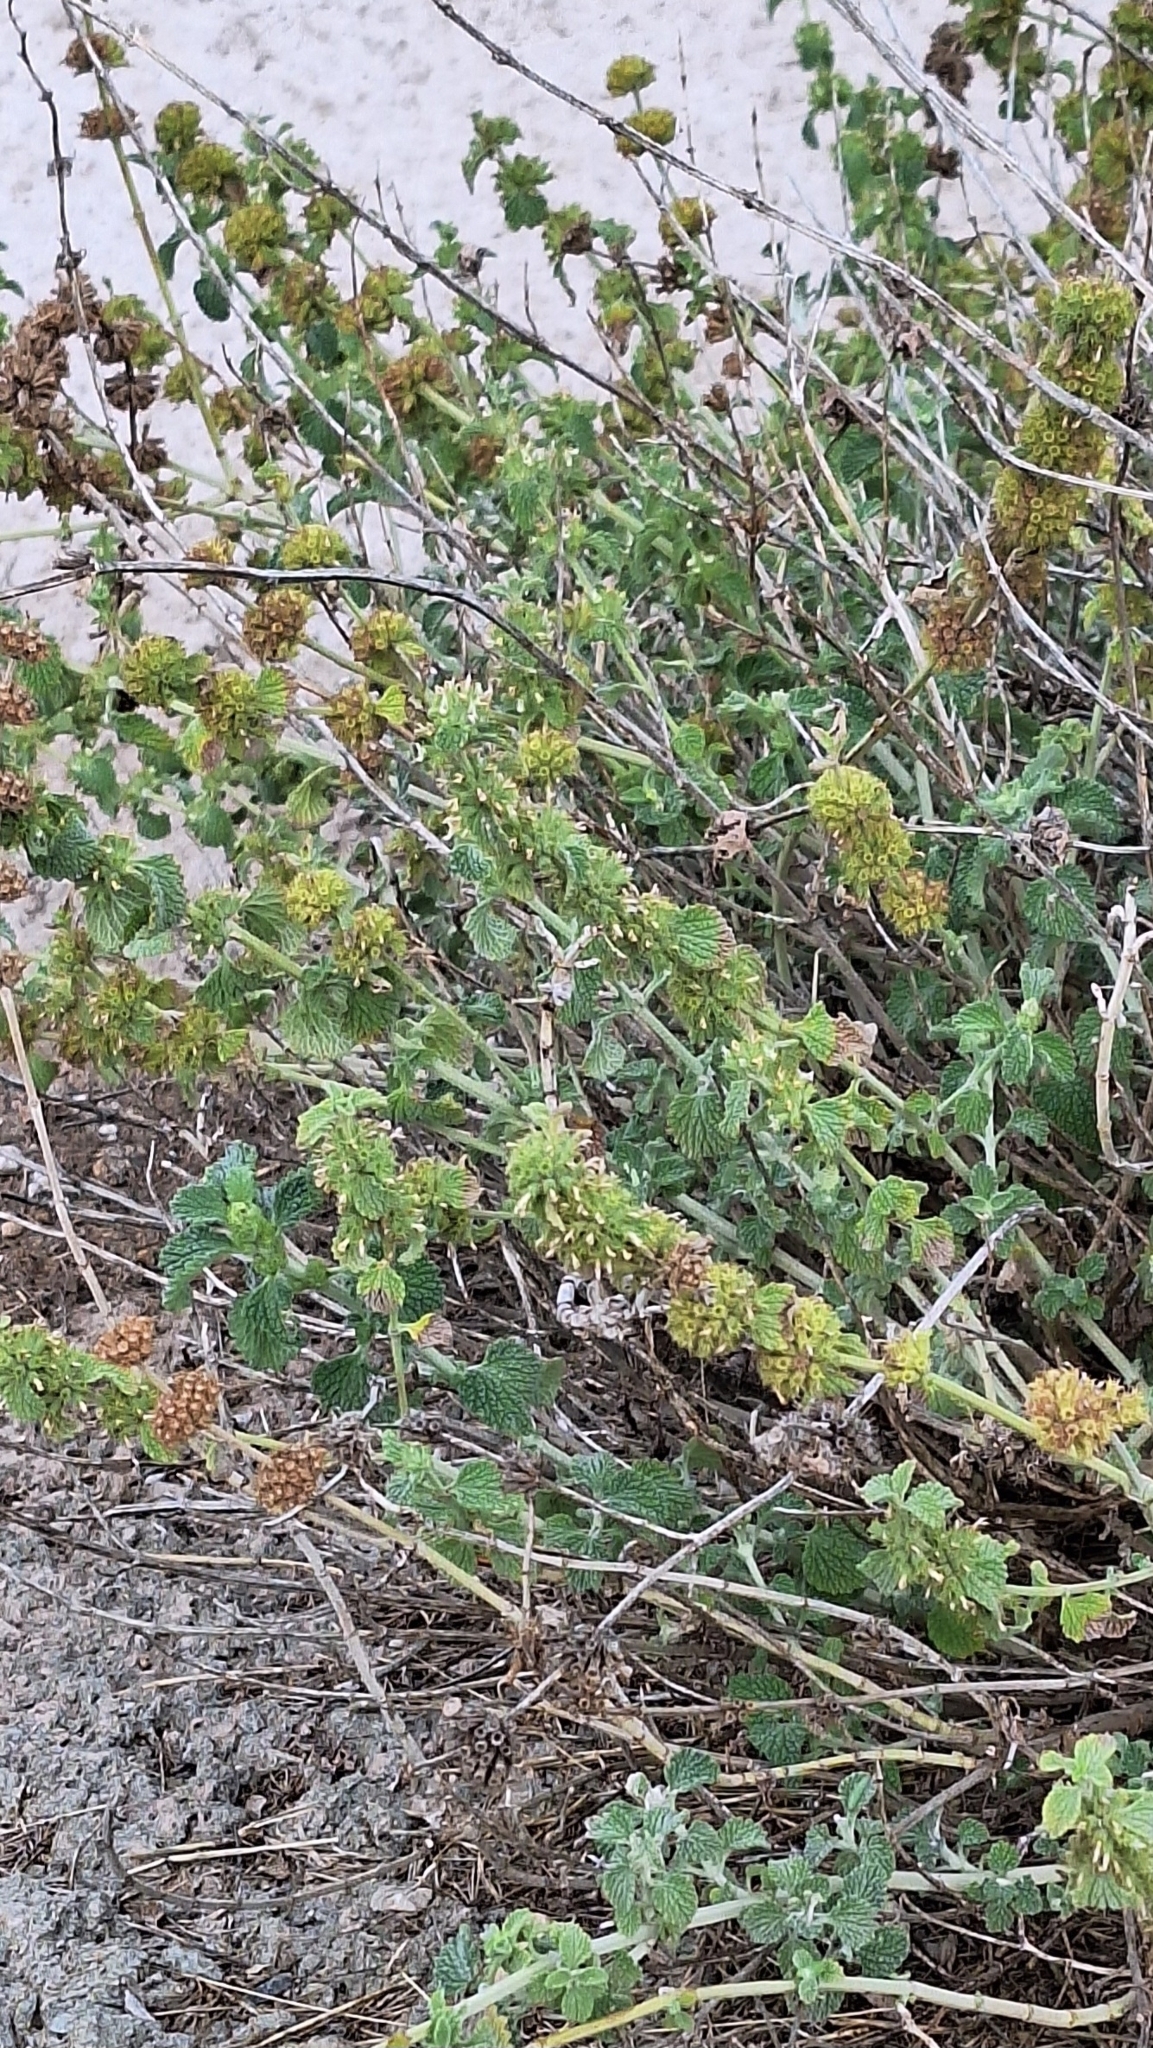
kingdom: Plantae
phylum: Tracheophyta
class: Magnoliopsida
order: Lamiales
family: Lamiaceae
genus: Marrubium
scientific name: Marrubium vulgare
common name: Horehound
